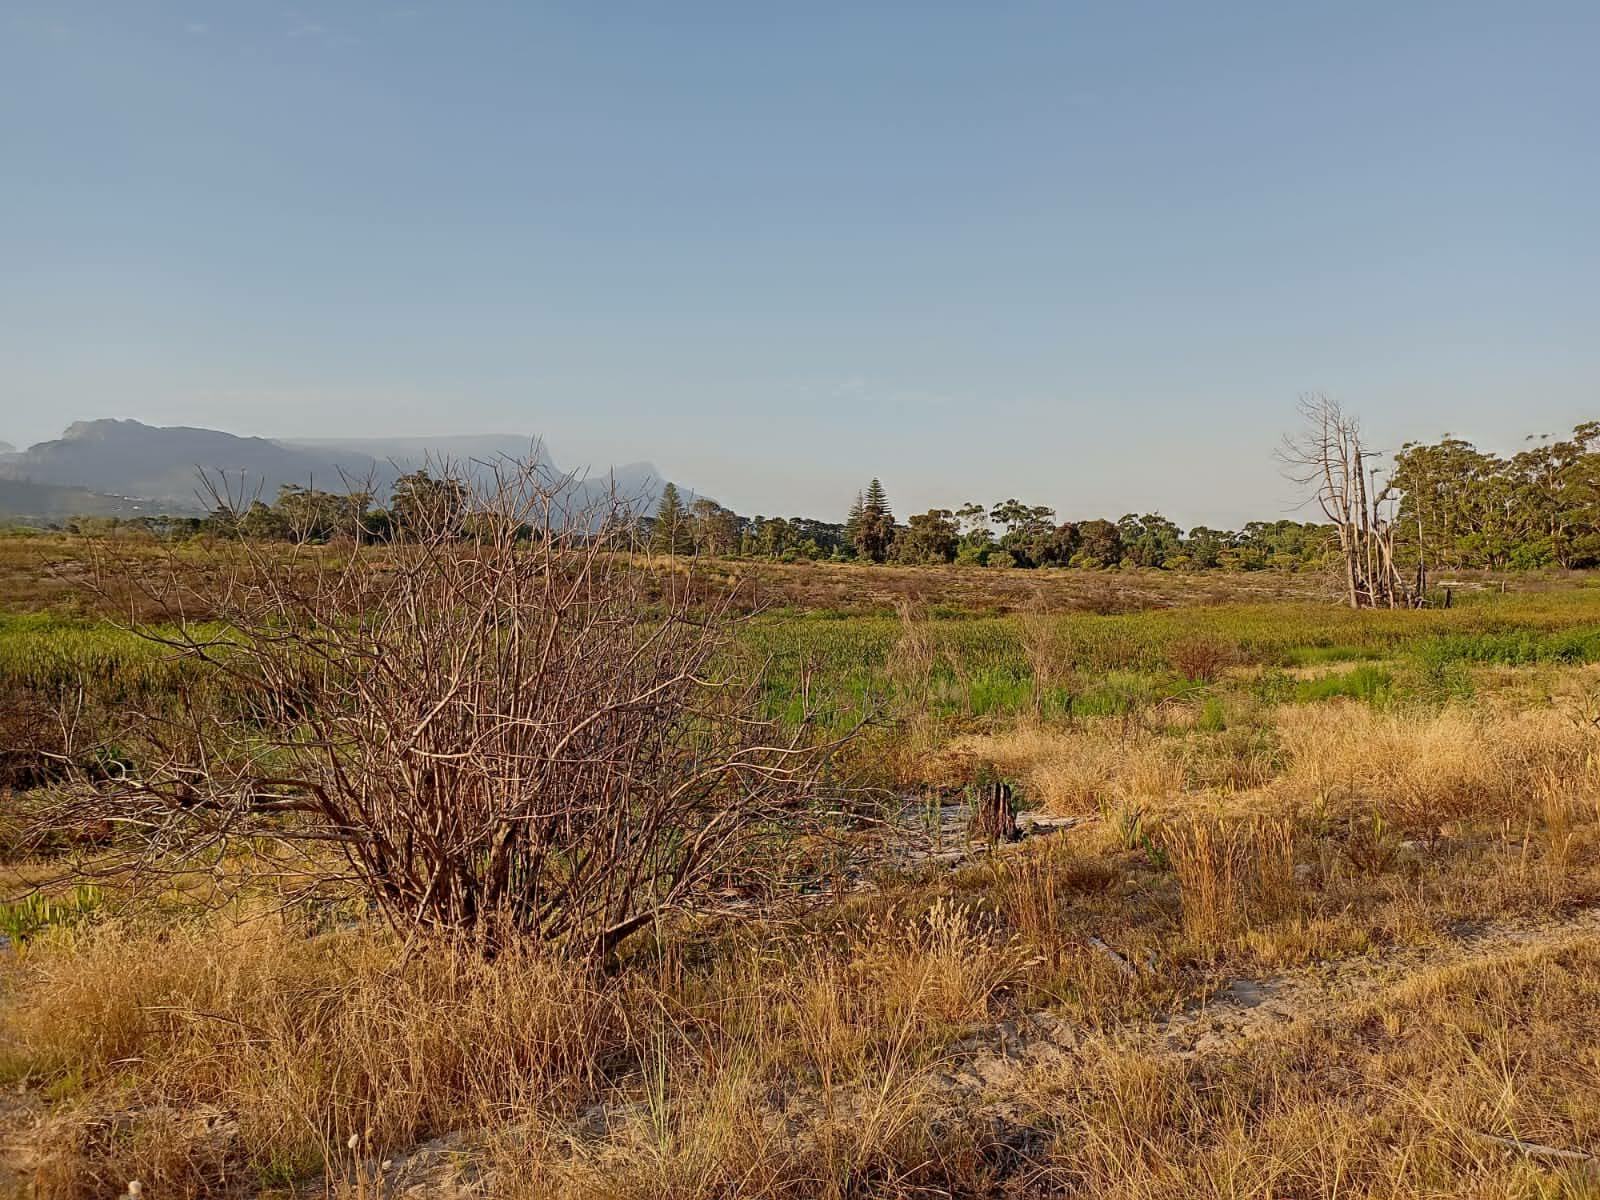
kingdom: Plantae
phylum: Tracheophyta
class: Magnoliopsida
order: Asterales
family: Asteraceae
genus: Osteospermum
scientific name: Osteospermum moniliferum
